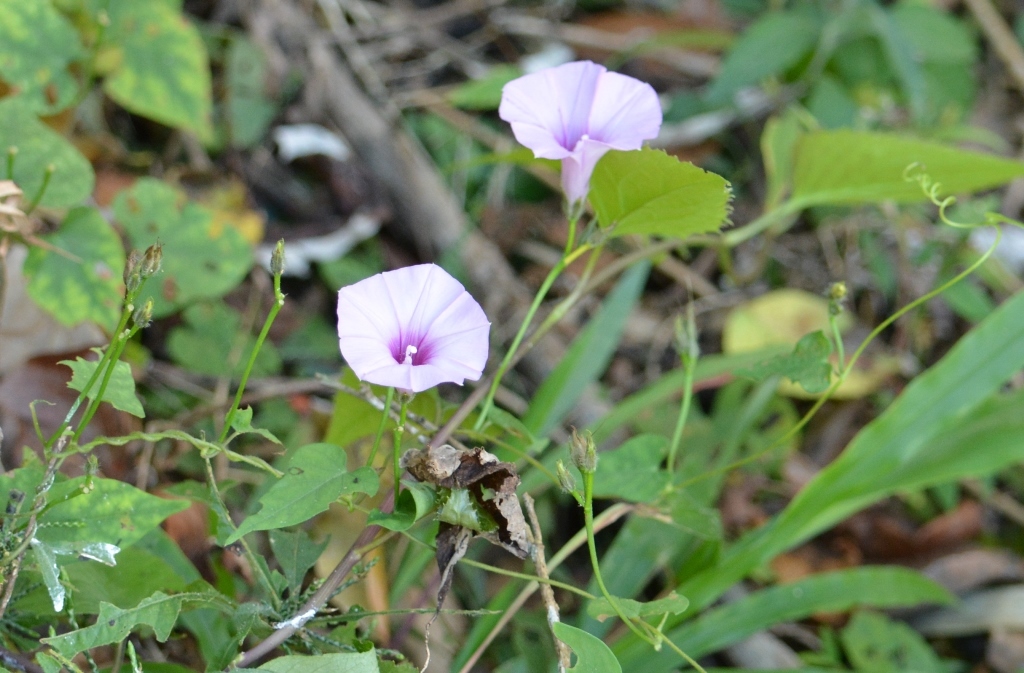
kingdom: Plantae
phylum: Tracheophyta
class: Magnoliopsida
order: Solanales
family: Convolvulaceae
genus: Ipomoea
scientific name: Ipomoea trifida
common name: Cotton morningglory
